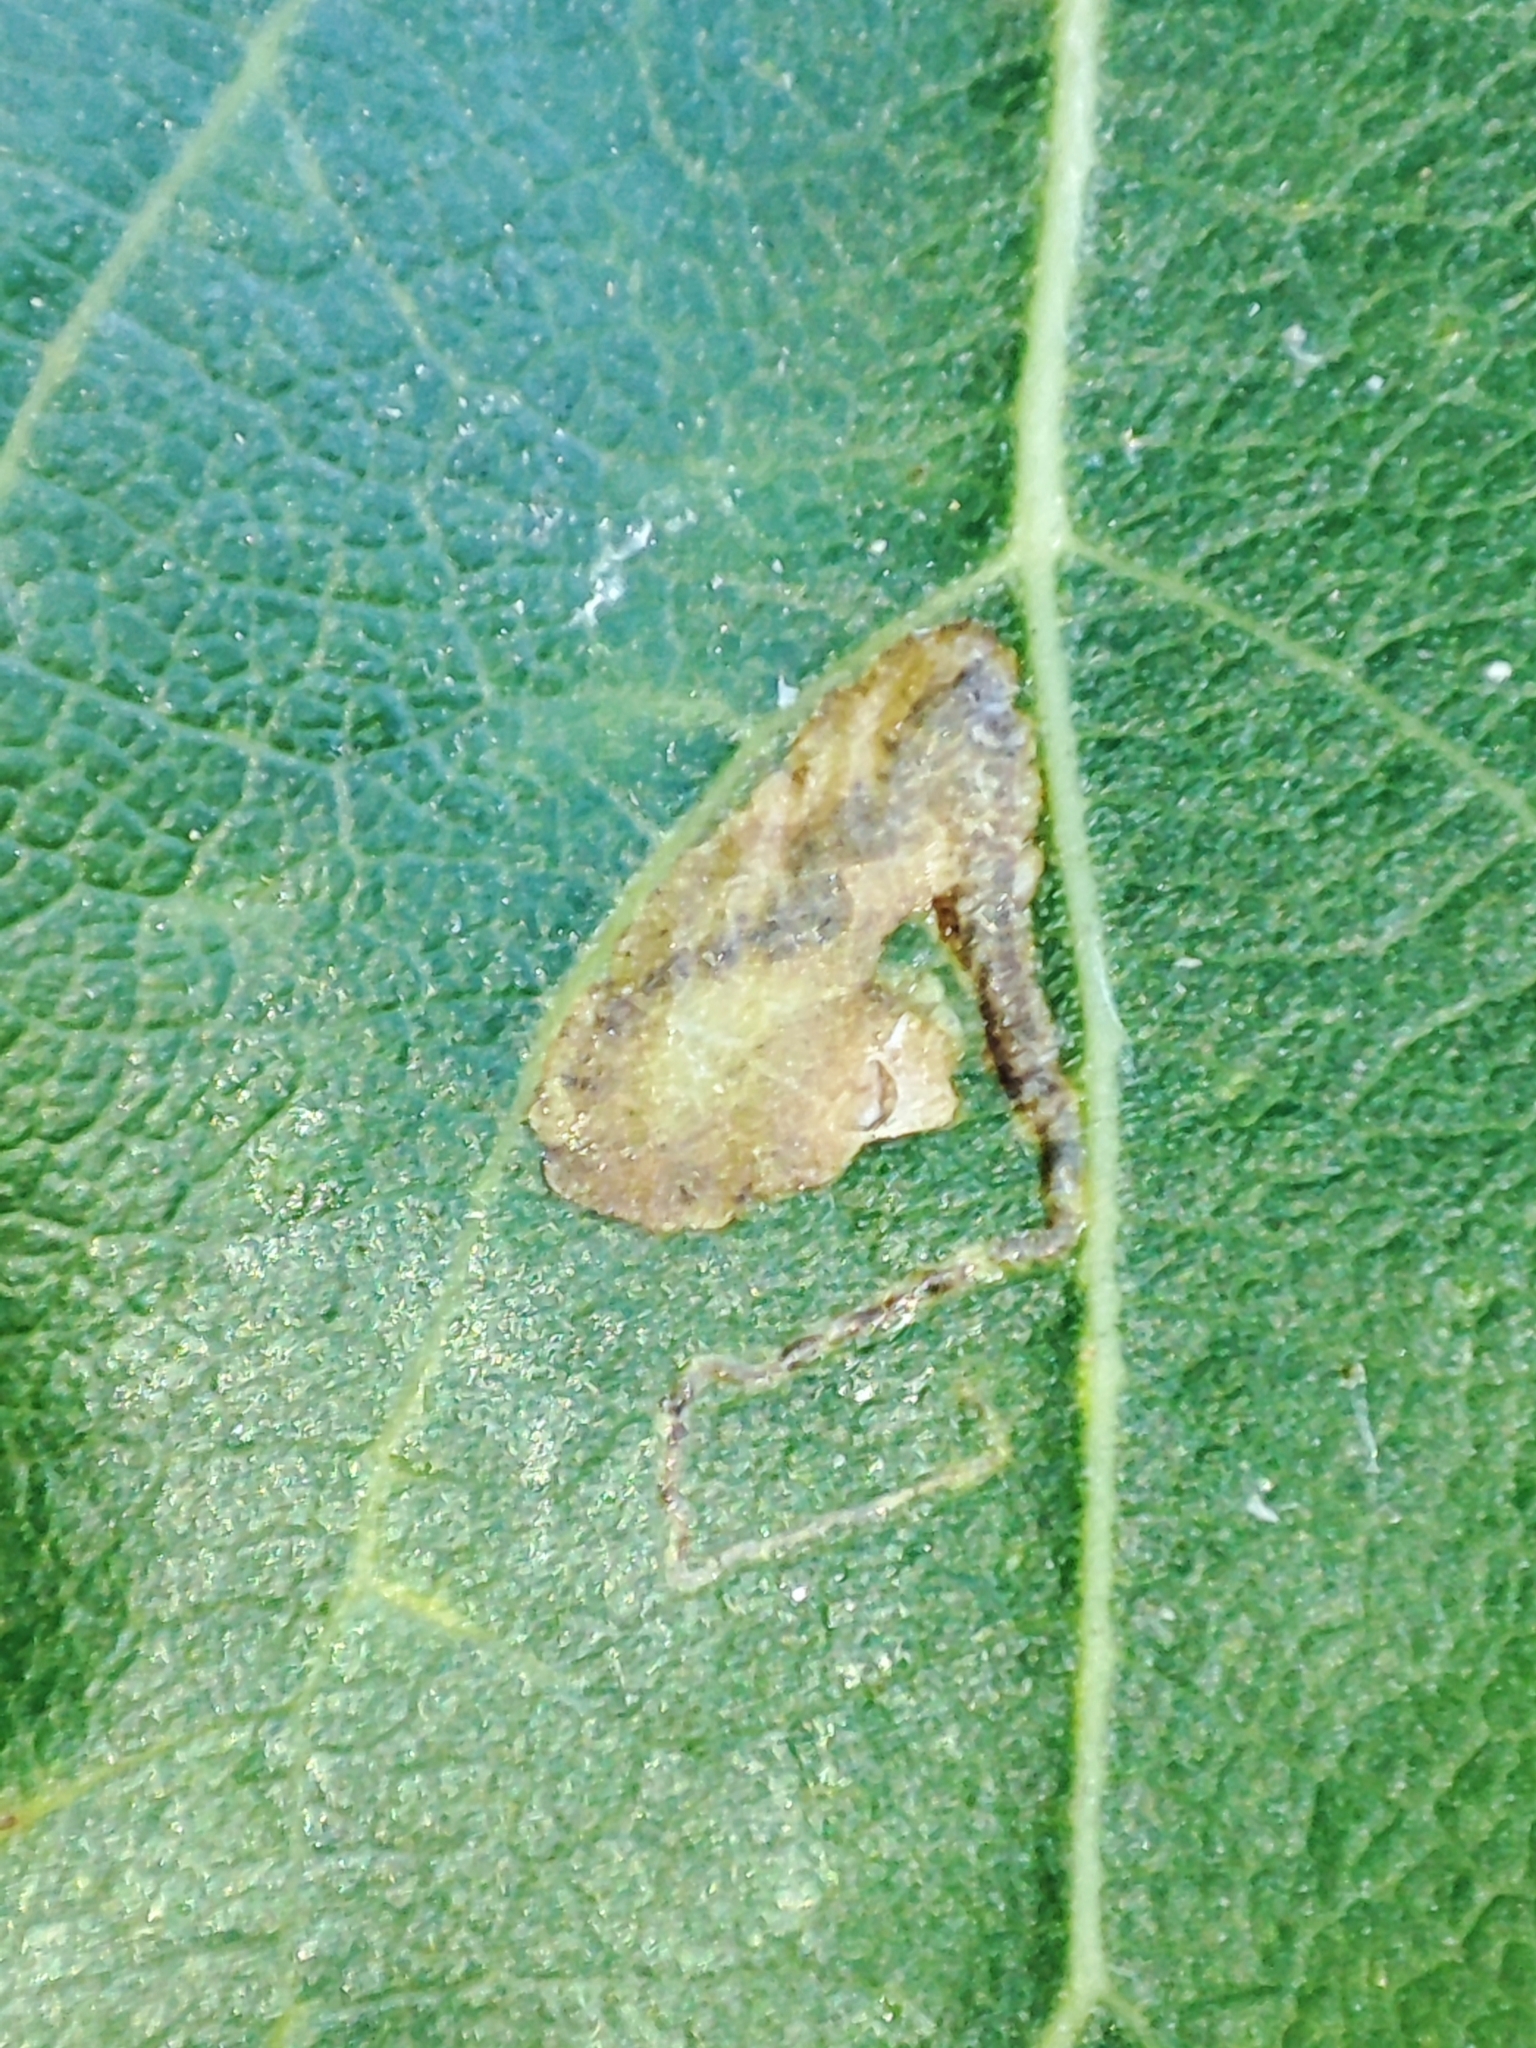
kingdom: Animalia
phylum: Arthropoda
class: Insecta
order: Lepidoptera
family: Nepticulidae
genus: Stigmella
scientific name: Stigmella trimaculella
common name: Black-poplar pigmy
